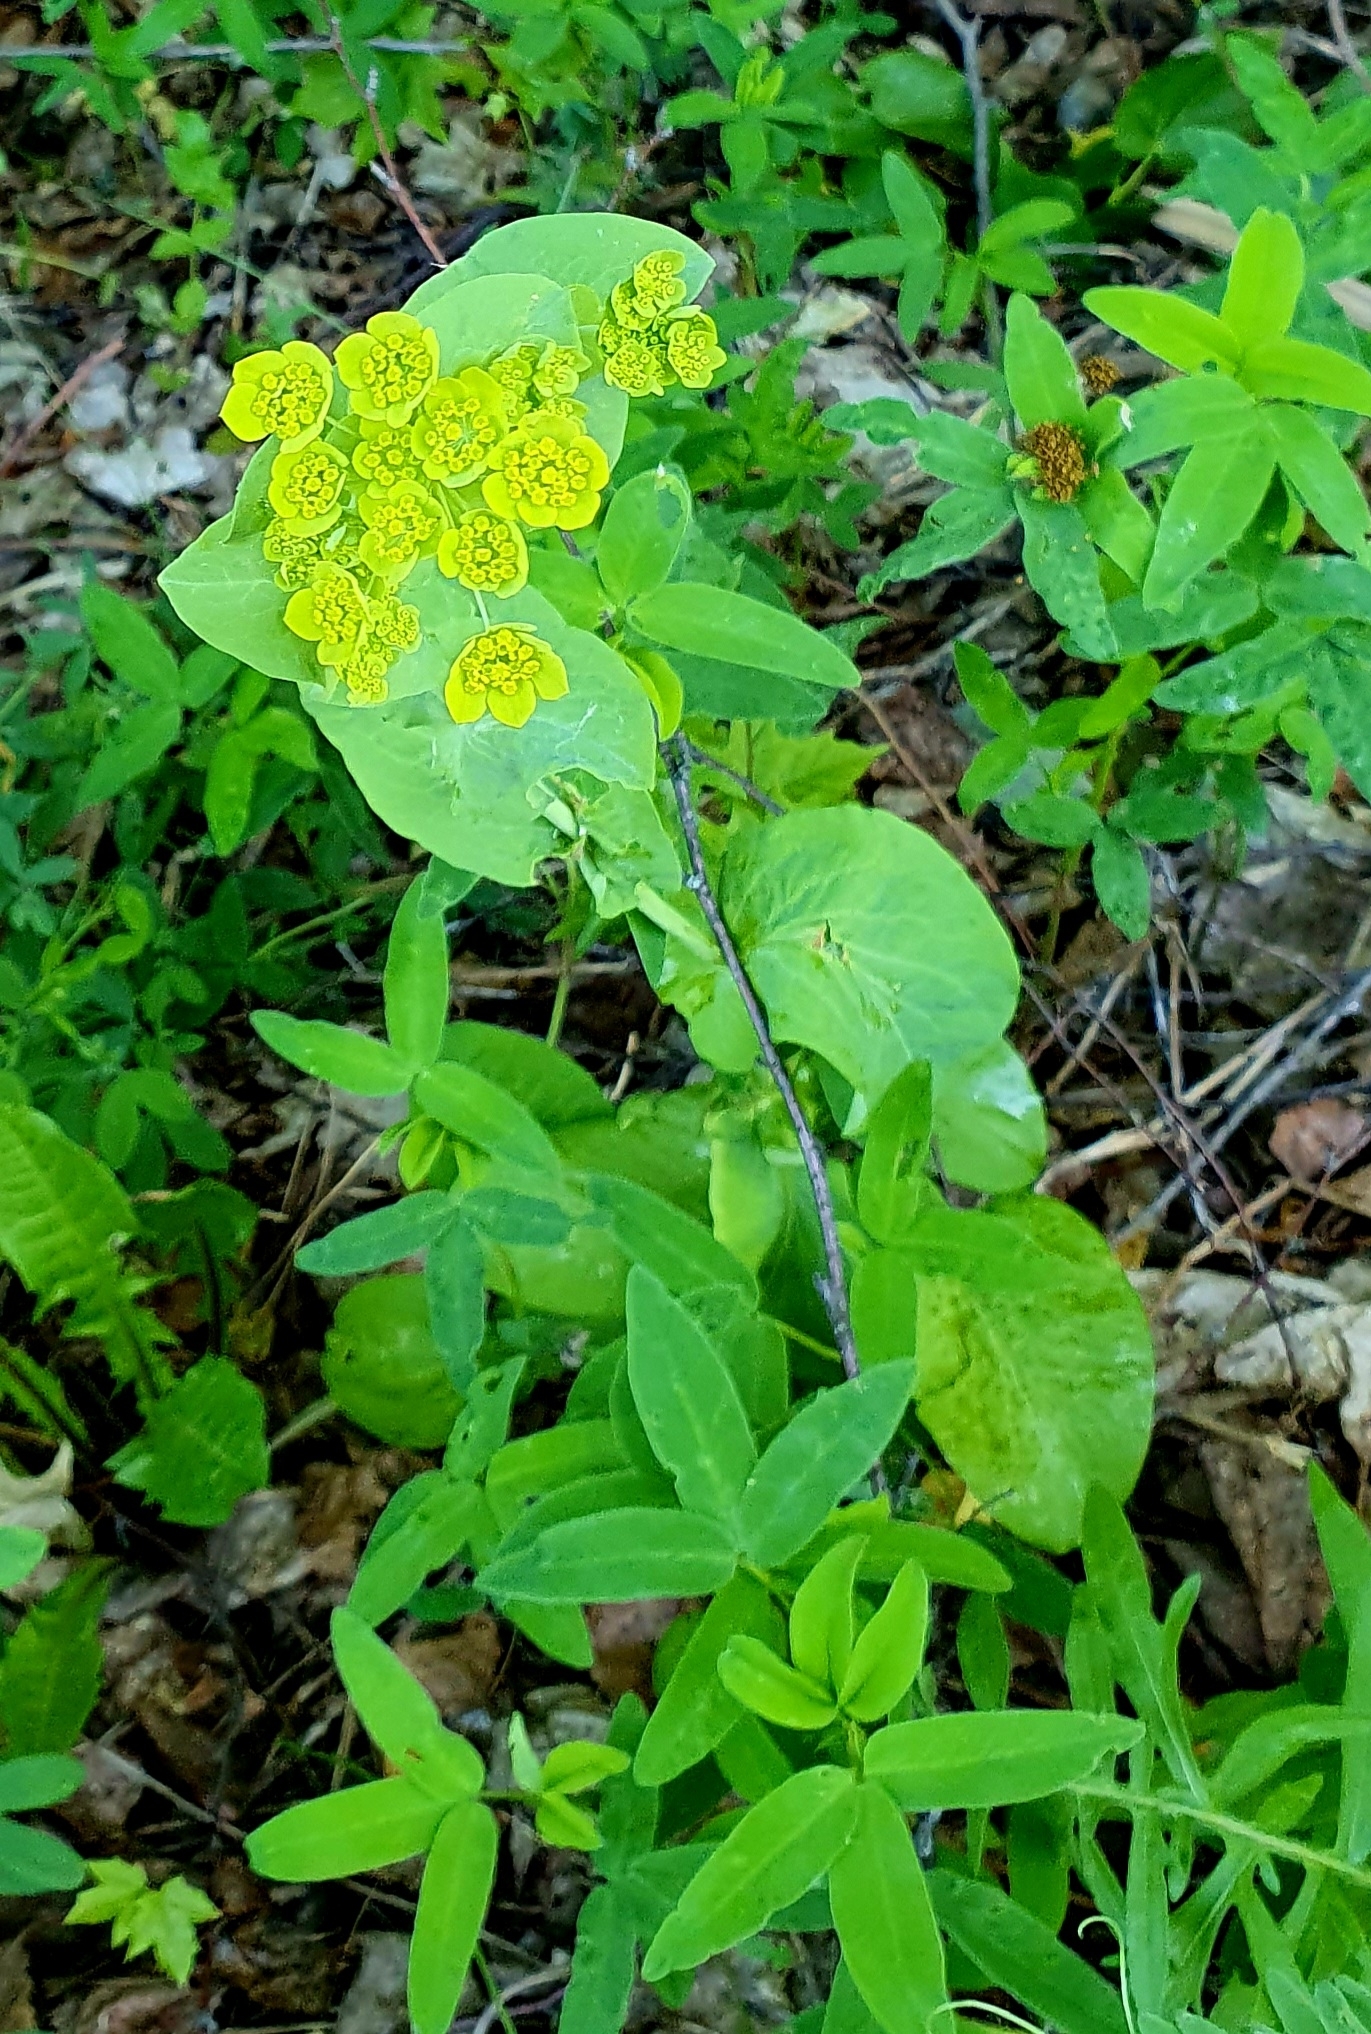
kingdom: Plantae
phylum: Tracheophyta
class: Magnoliopsida
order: Apiales
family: Apiaceae
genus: Bupleurum
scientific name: Bupleurum aureum
